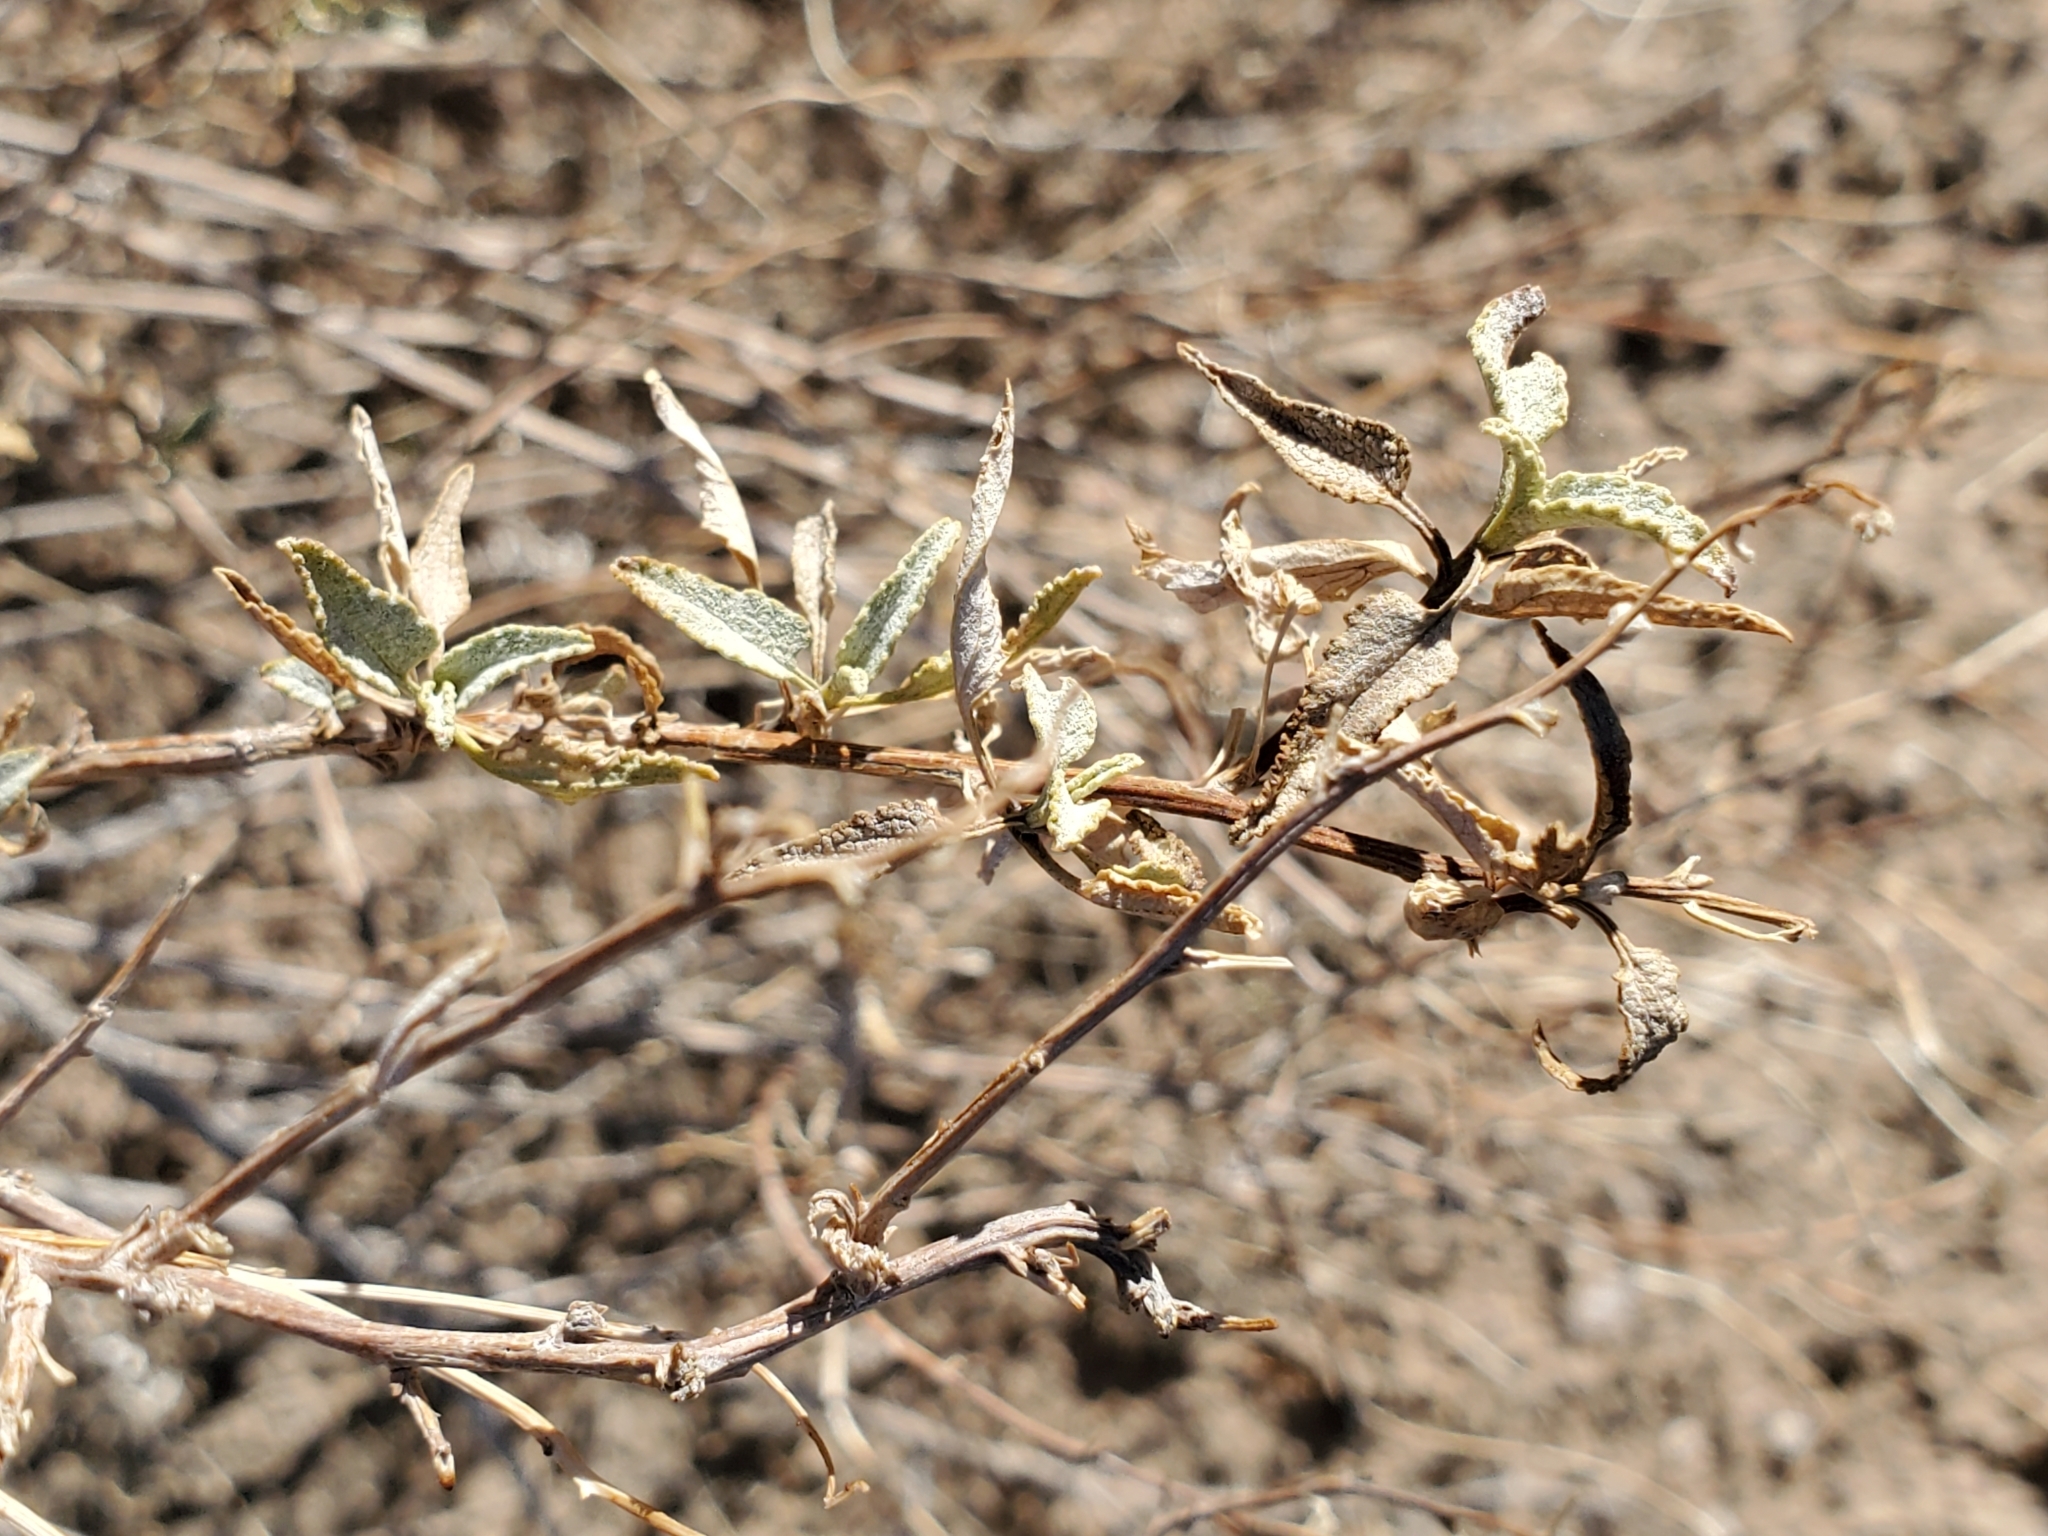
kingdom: Plantae
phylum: Tracheophyta
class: Magnoliopsida
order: Asterales
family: Asteraceae
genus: Ambrosia
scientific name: Ambrosia deltoidea
